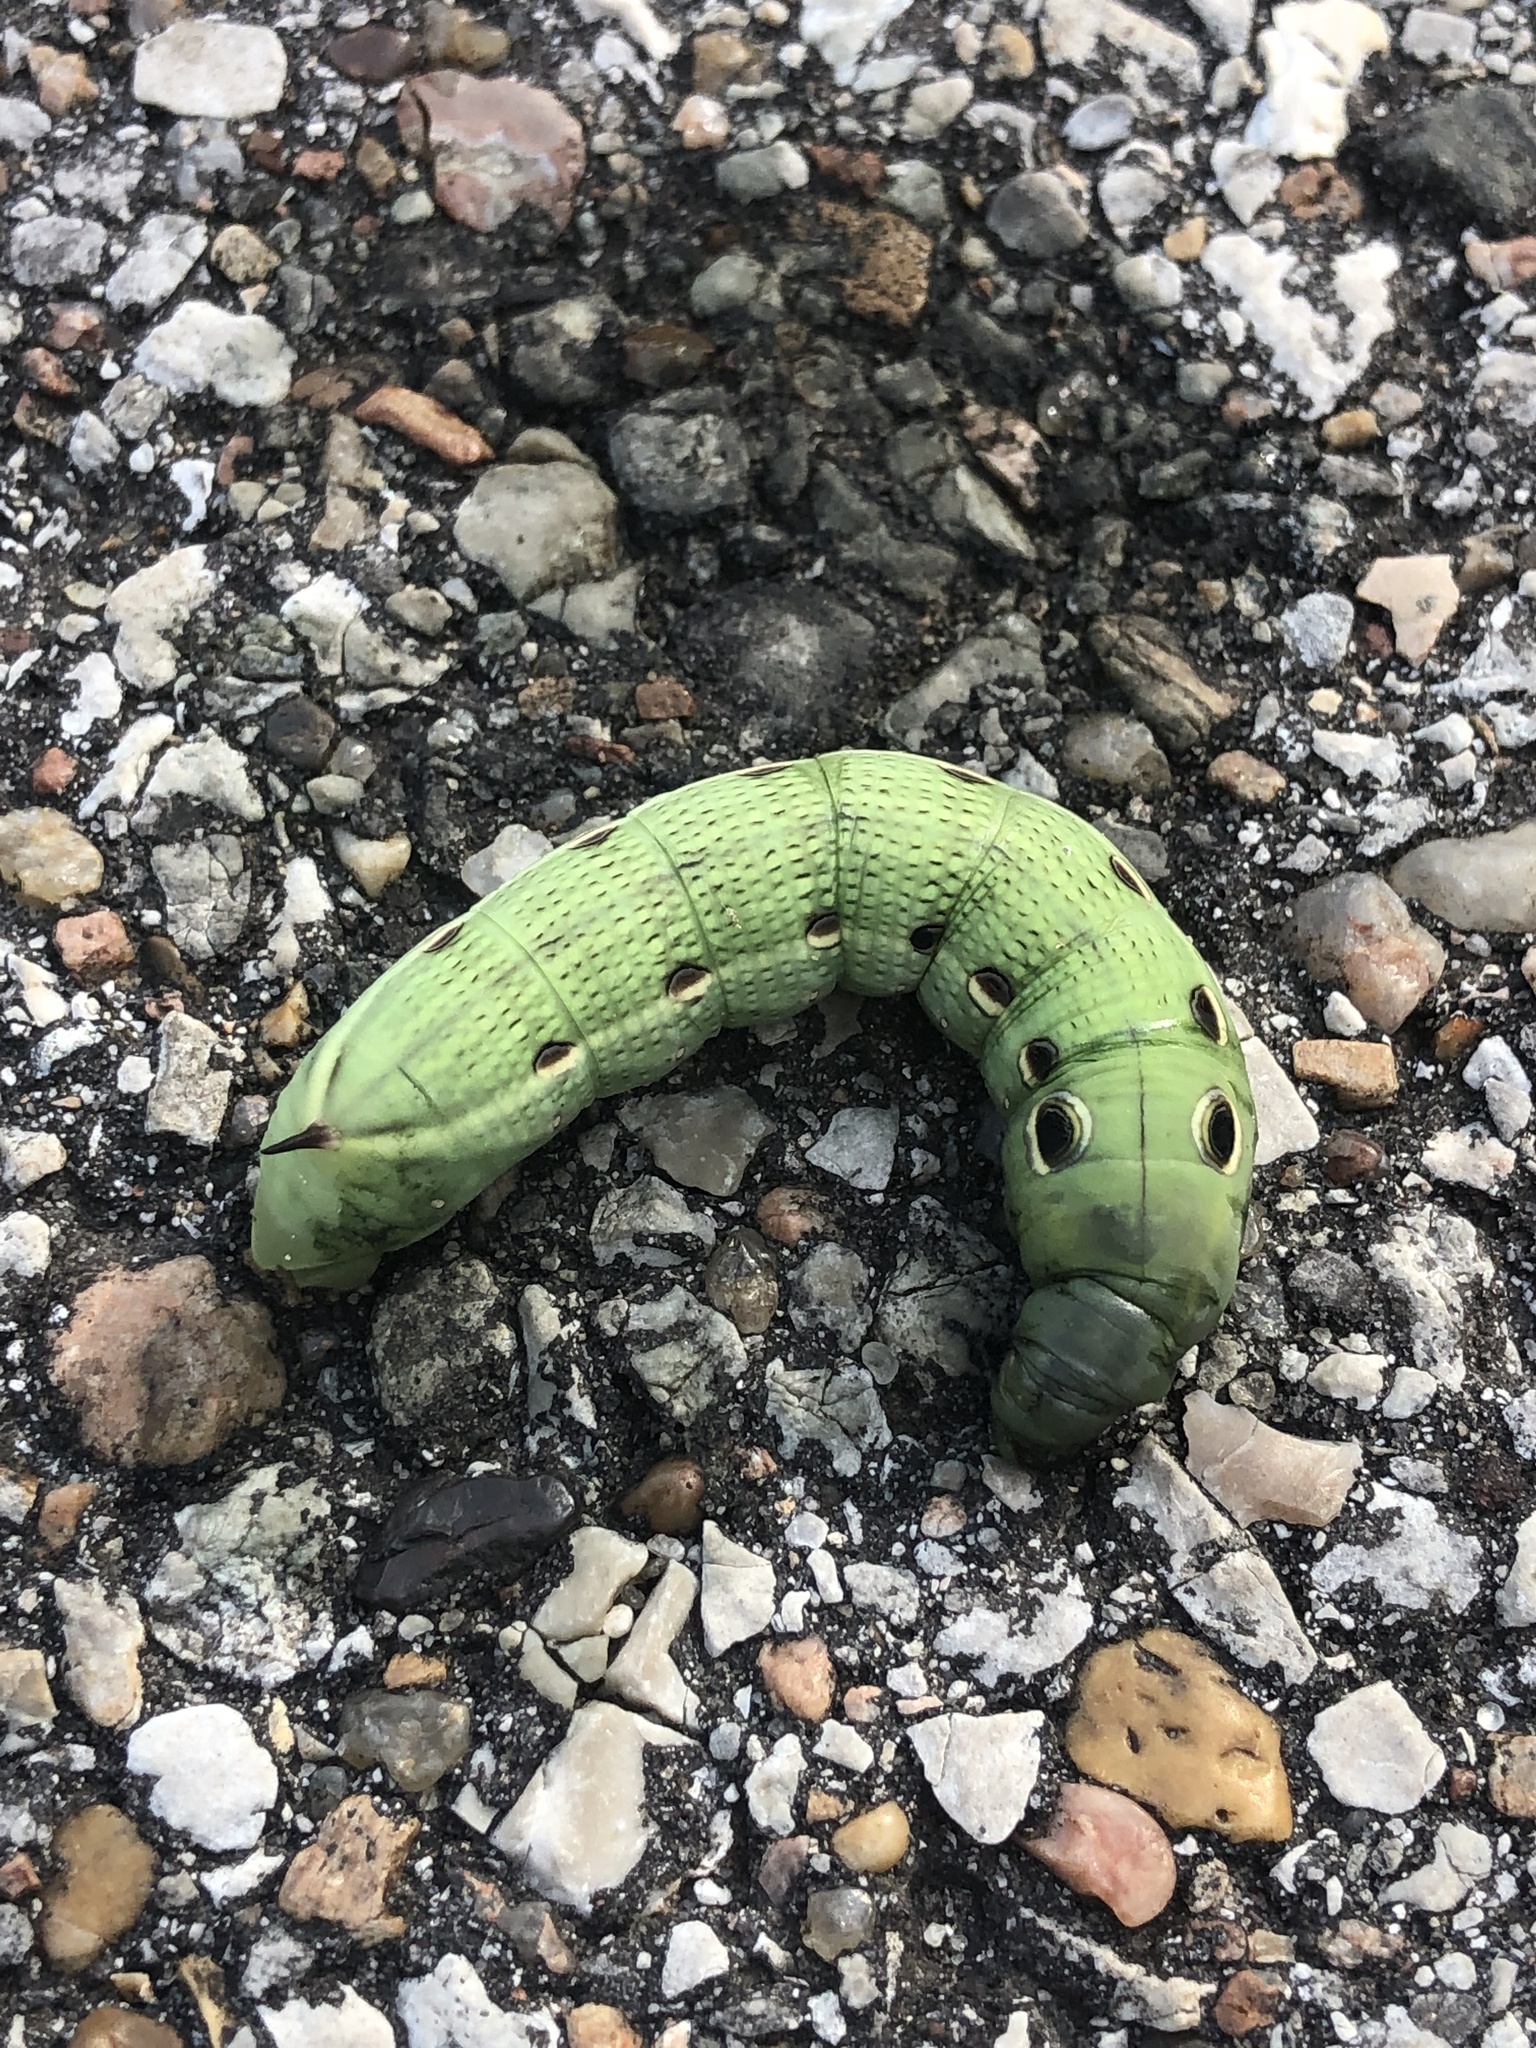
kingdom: Animalia
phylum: Arthropoda
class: Insecta
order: Lepidoptera
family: Sphingidae
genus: Xylophanes
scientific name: Xylophanes tersa
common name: Tersa sphinx
